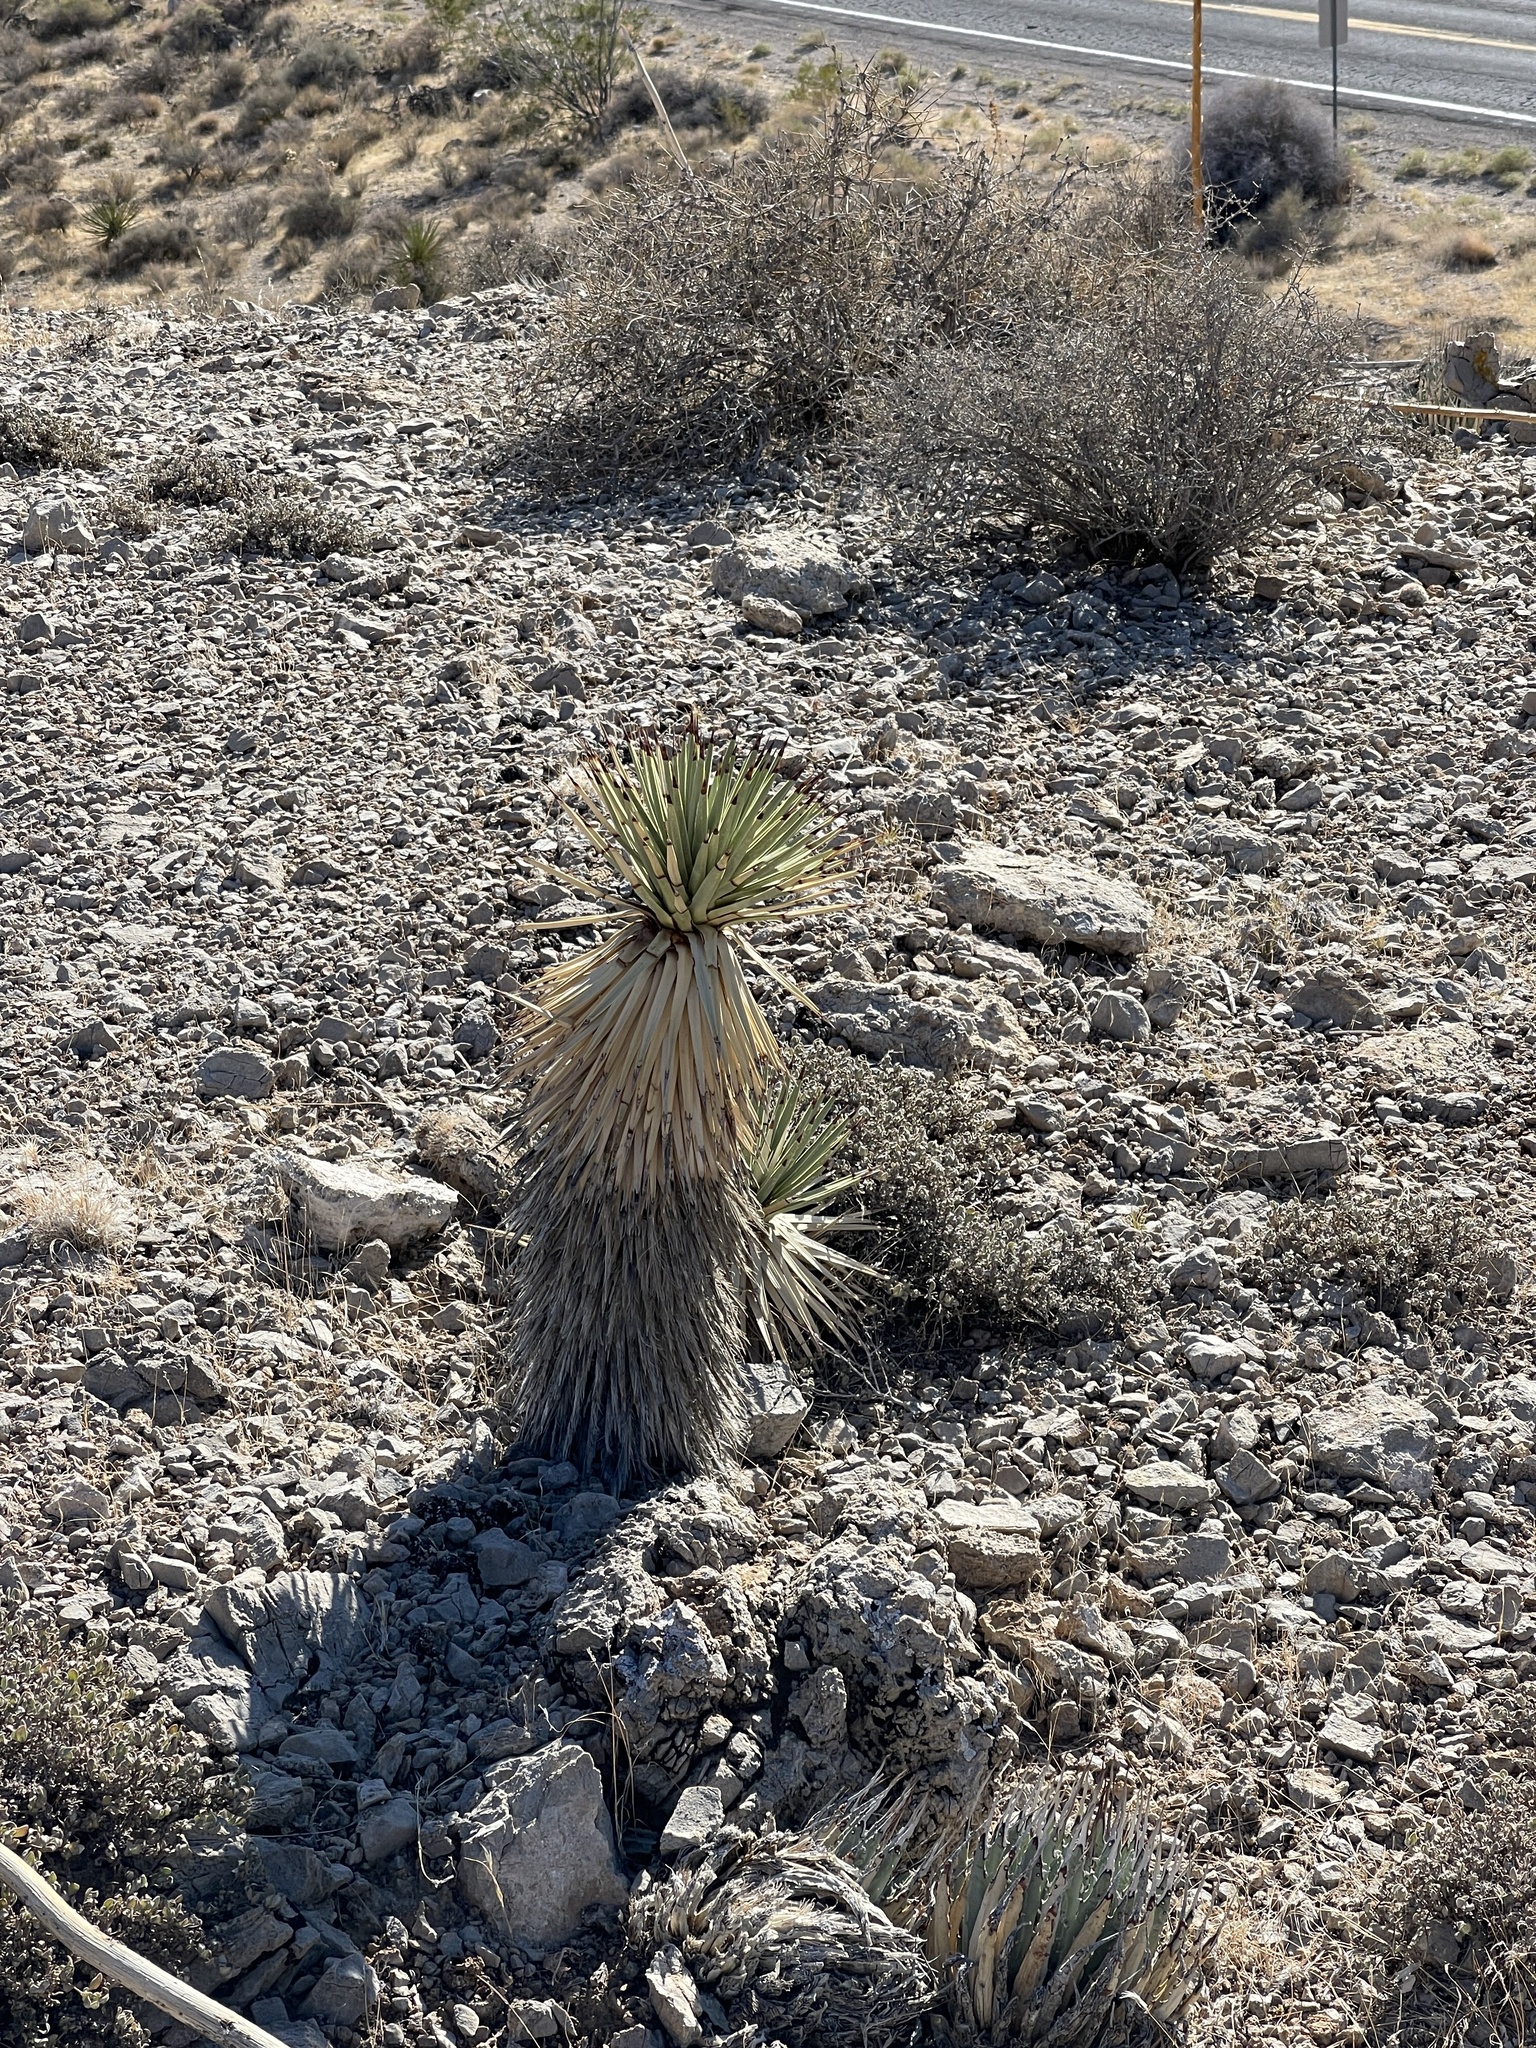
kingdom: Plantae
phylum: Tracheophyta
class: Liliopsida
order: Asparagales
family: Asparagaceae
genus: Yucca
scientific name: Yucca brevifolia
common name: Joshua tree
